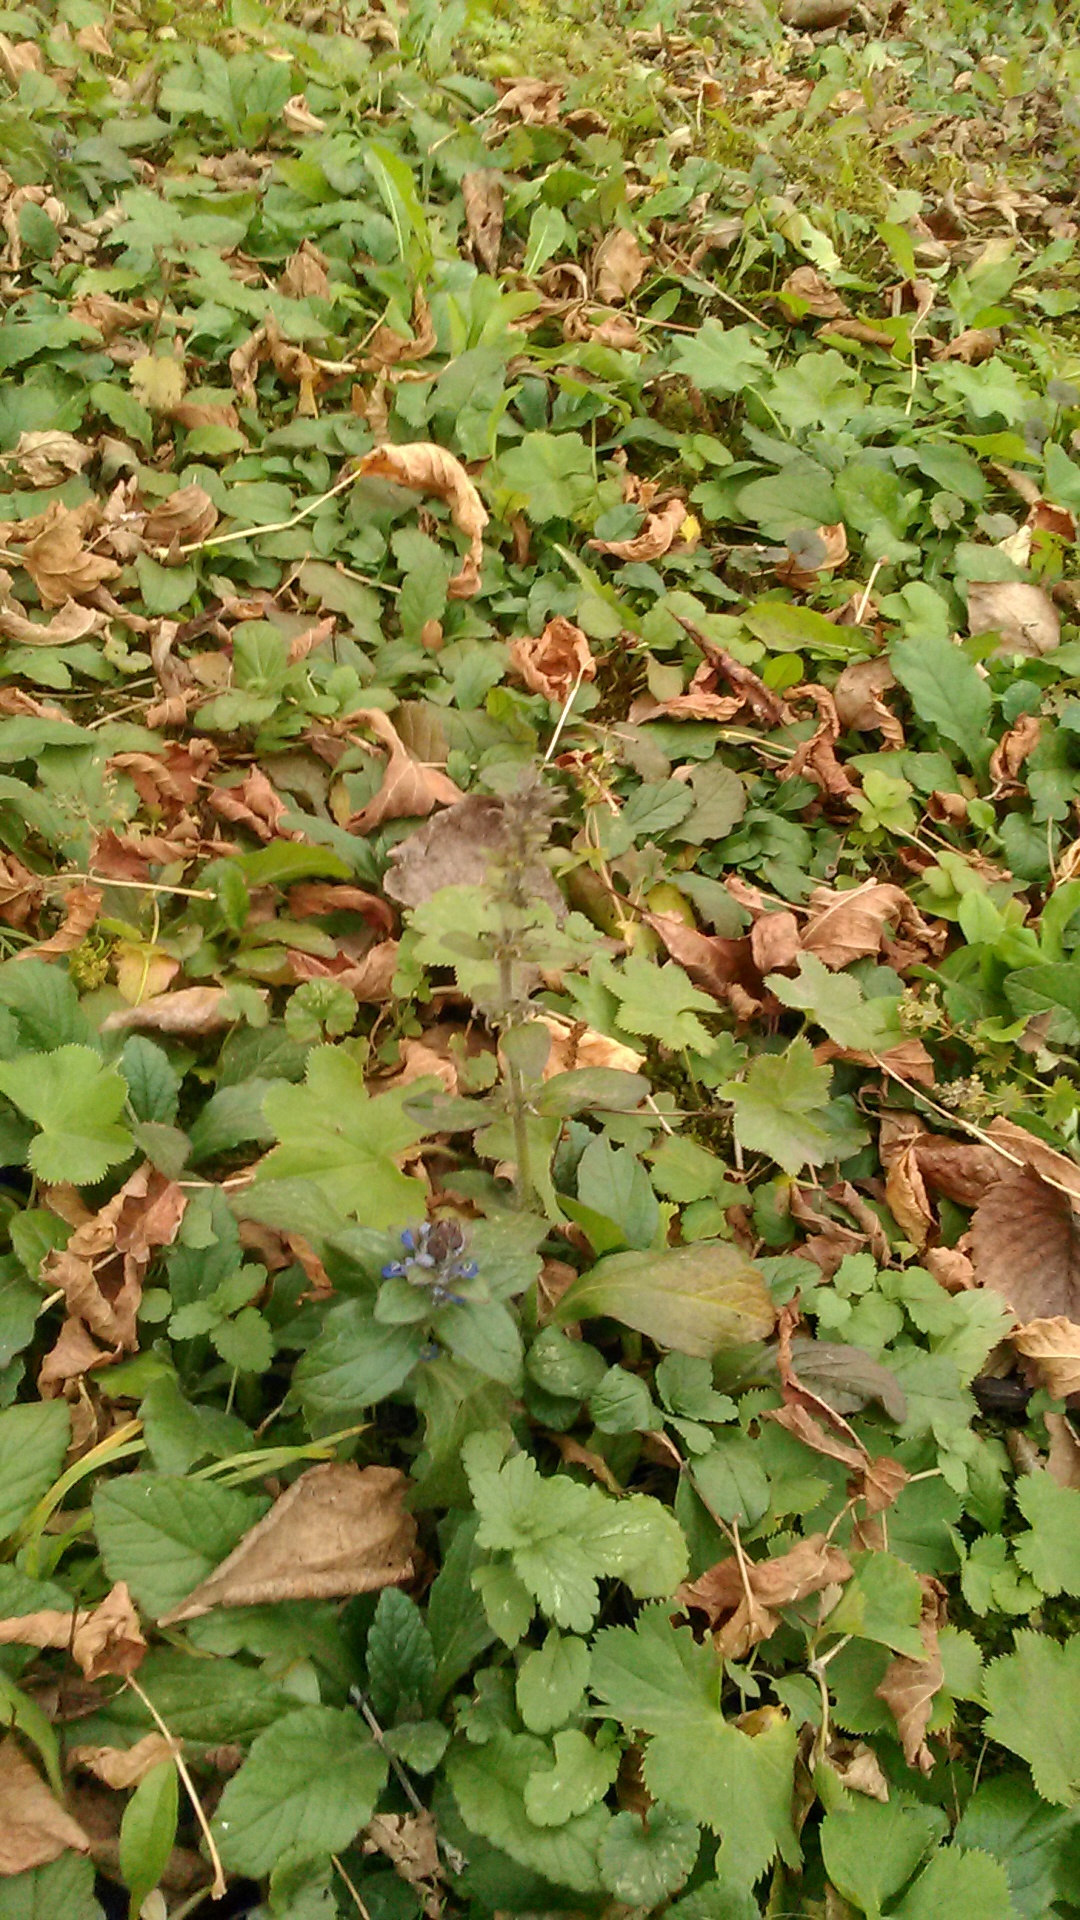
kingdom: Plantae
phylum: Tracheophyta
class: Magnoliopsida
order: Lamiales
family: Lamiaceae
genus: Ajuga
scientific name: Ajuga reptans
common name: Bugle
